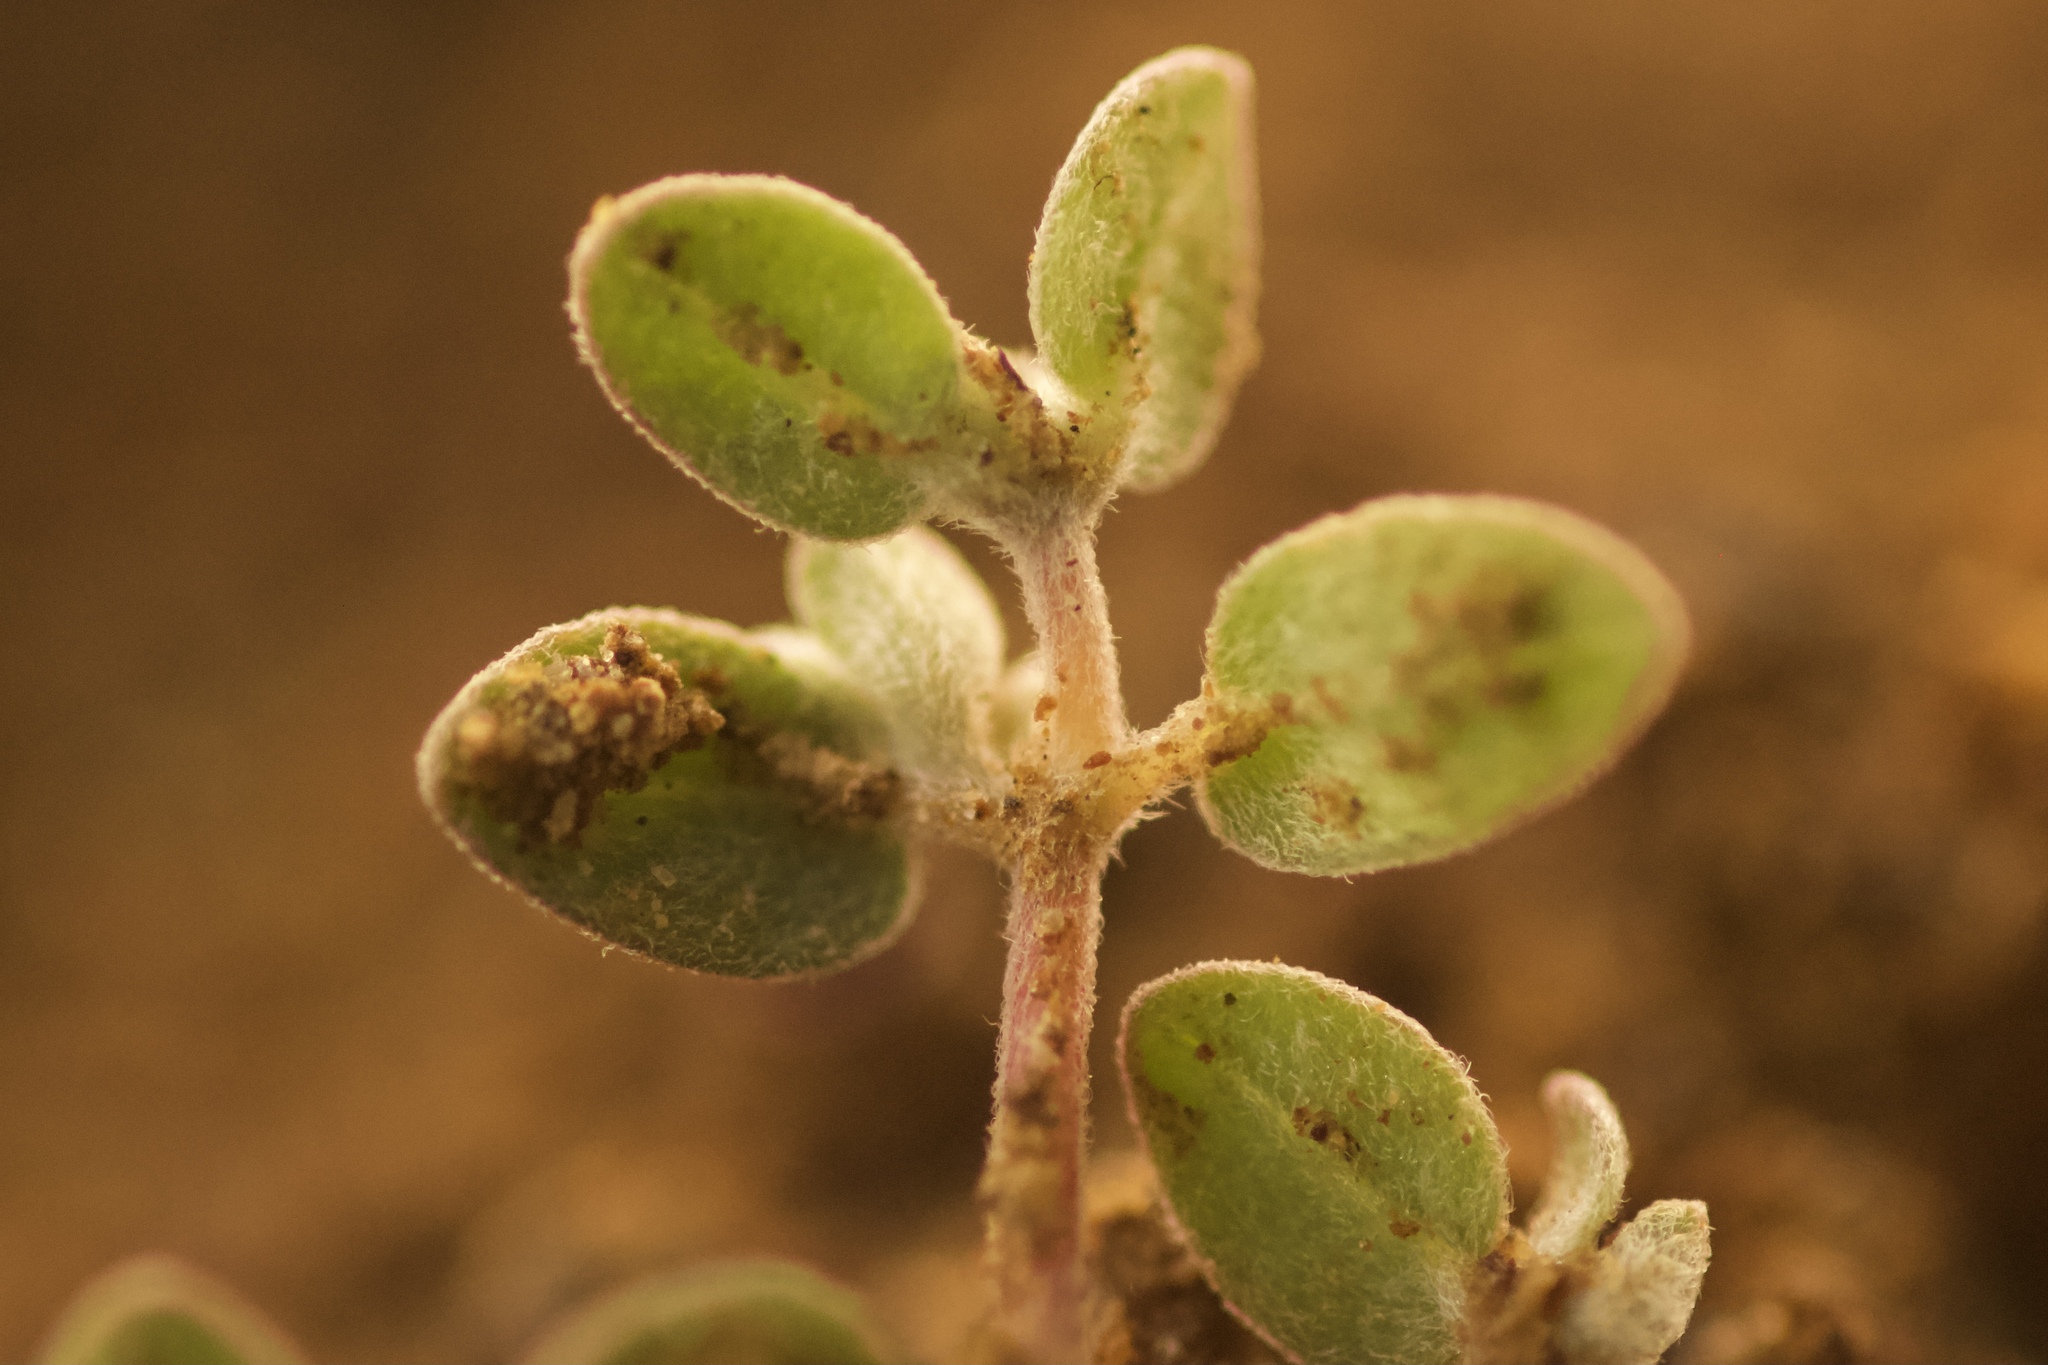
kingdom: Plantae
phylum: Tracheophyta
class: Magnoliopsida
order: Malpighiales
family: Euphorbiaceae
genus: Euphorbia
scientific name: Euphorbia melanadenia
